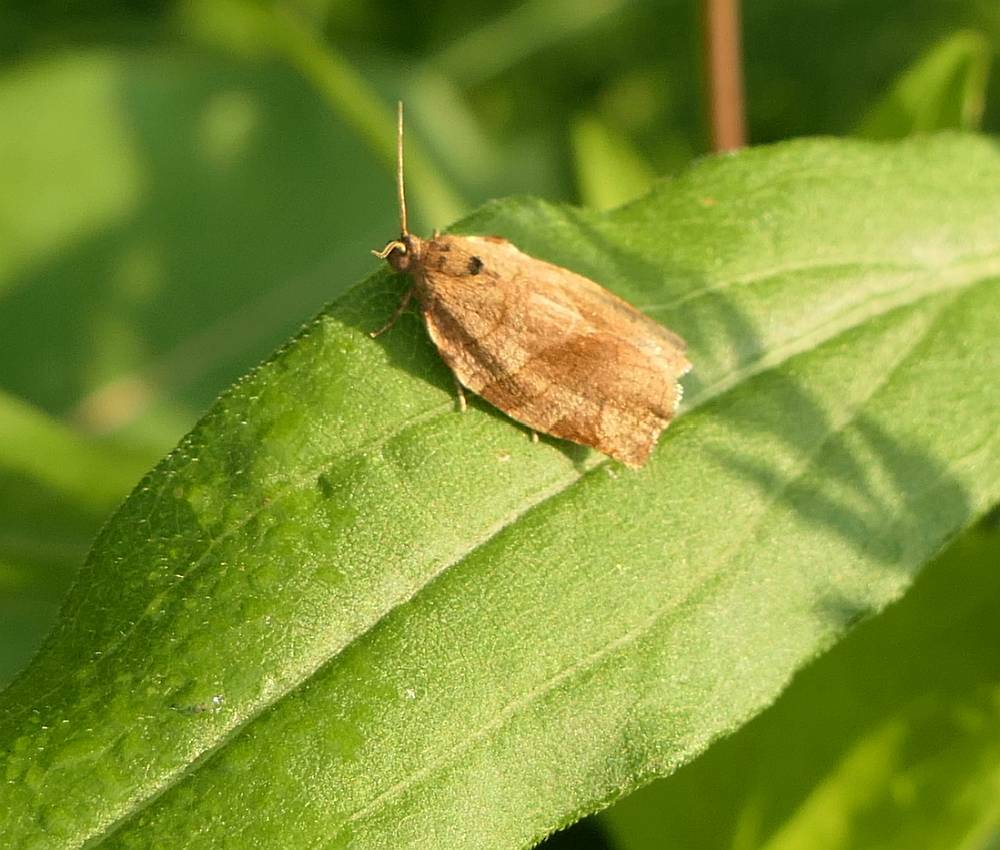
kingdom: Animalia
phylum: Arthropoda
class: Insecta
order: Lepidoptera
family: Tortricidae
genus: Choristoneura
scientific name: Choristoneura rosaceana
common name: Oblique-banded leafroller moth
